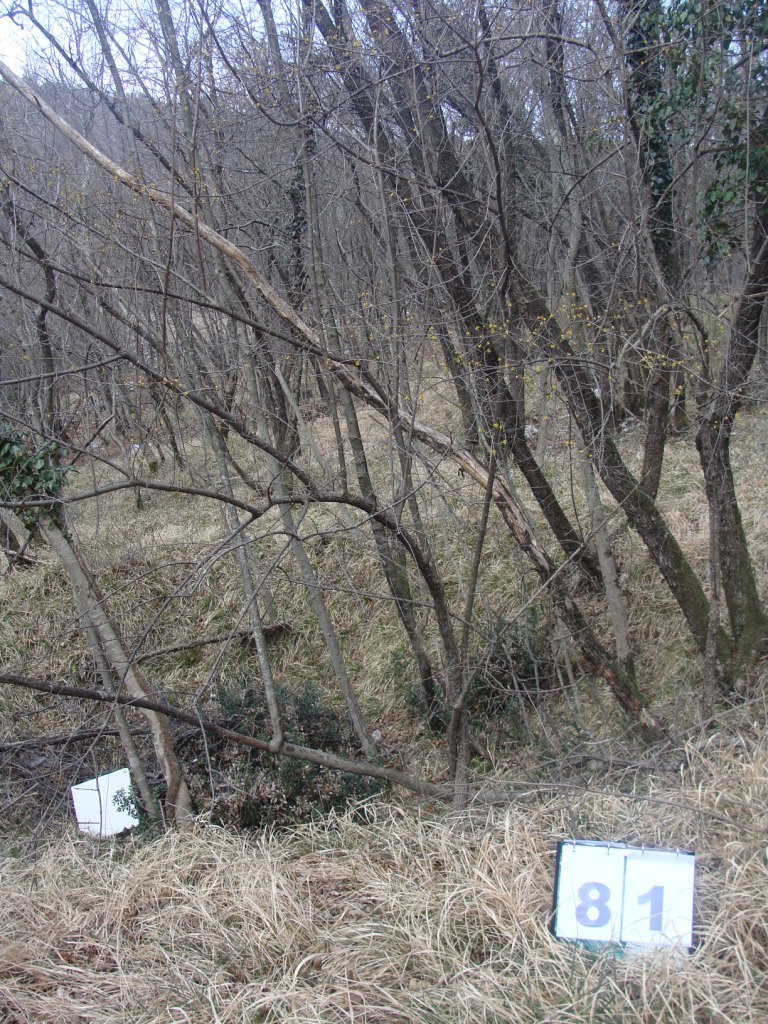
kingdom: Plantae
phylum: Tracheophyta
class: Magnoliopsida
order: Cornales
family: Cornaceae
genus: Cornus
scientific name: Cornus mas
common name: Cornelian-cherry
